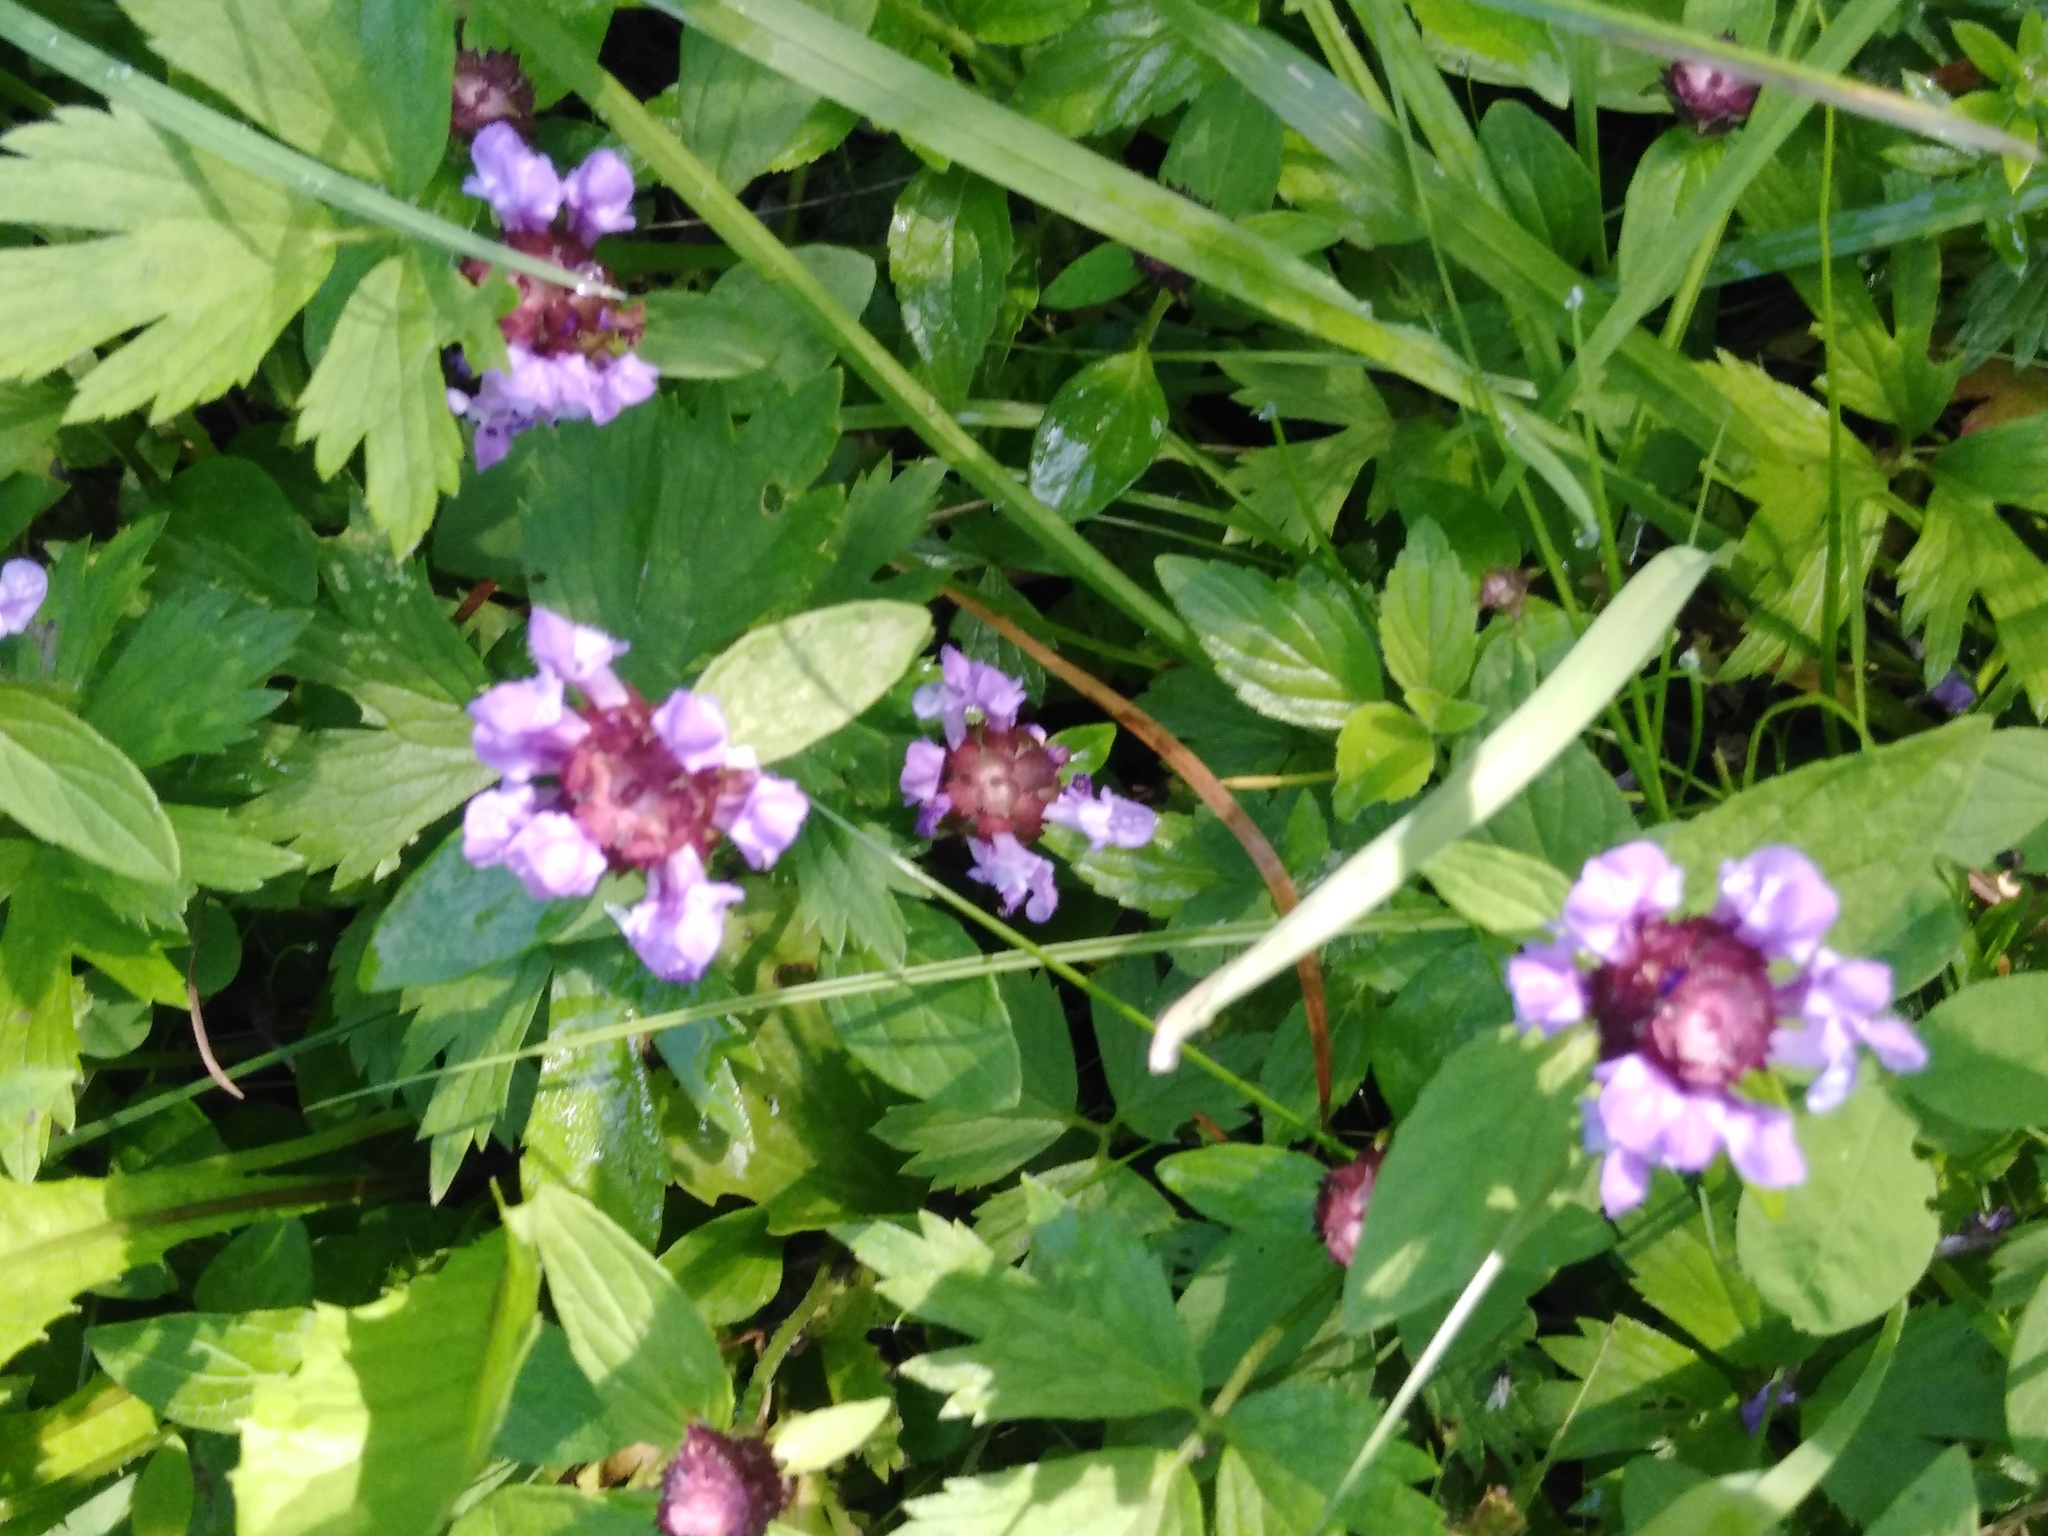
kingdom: Plantae
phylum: Tracheophyta
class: Magnoliopsida
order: Lamiales
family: Lamiaceae
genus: Prunella
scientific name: Prunella vulgaris
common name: Heal-all
